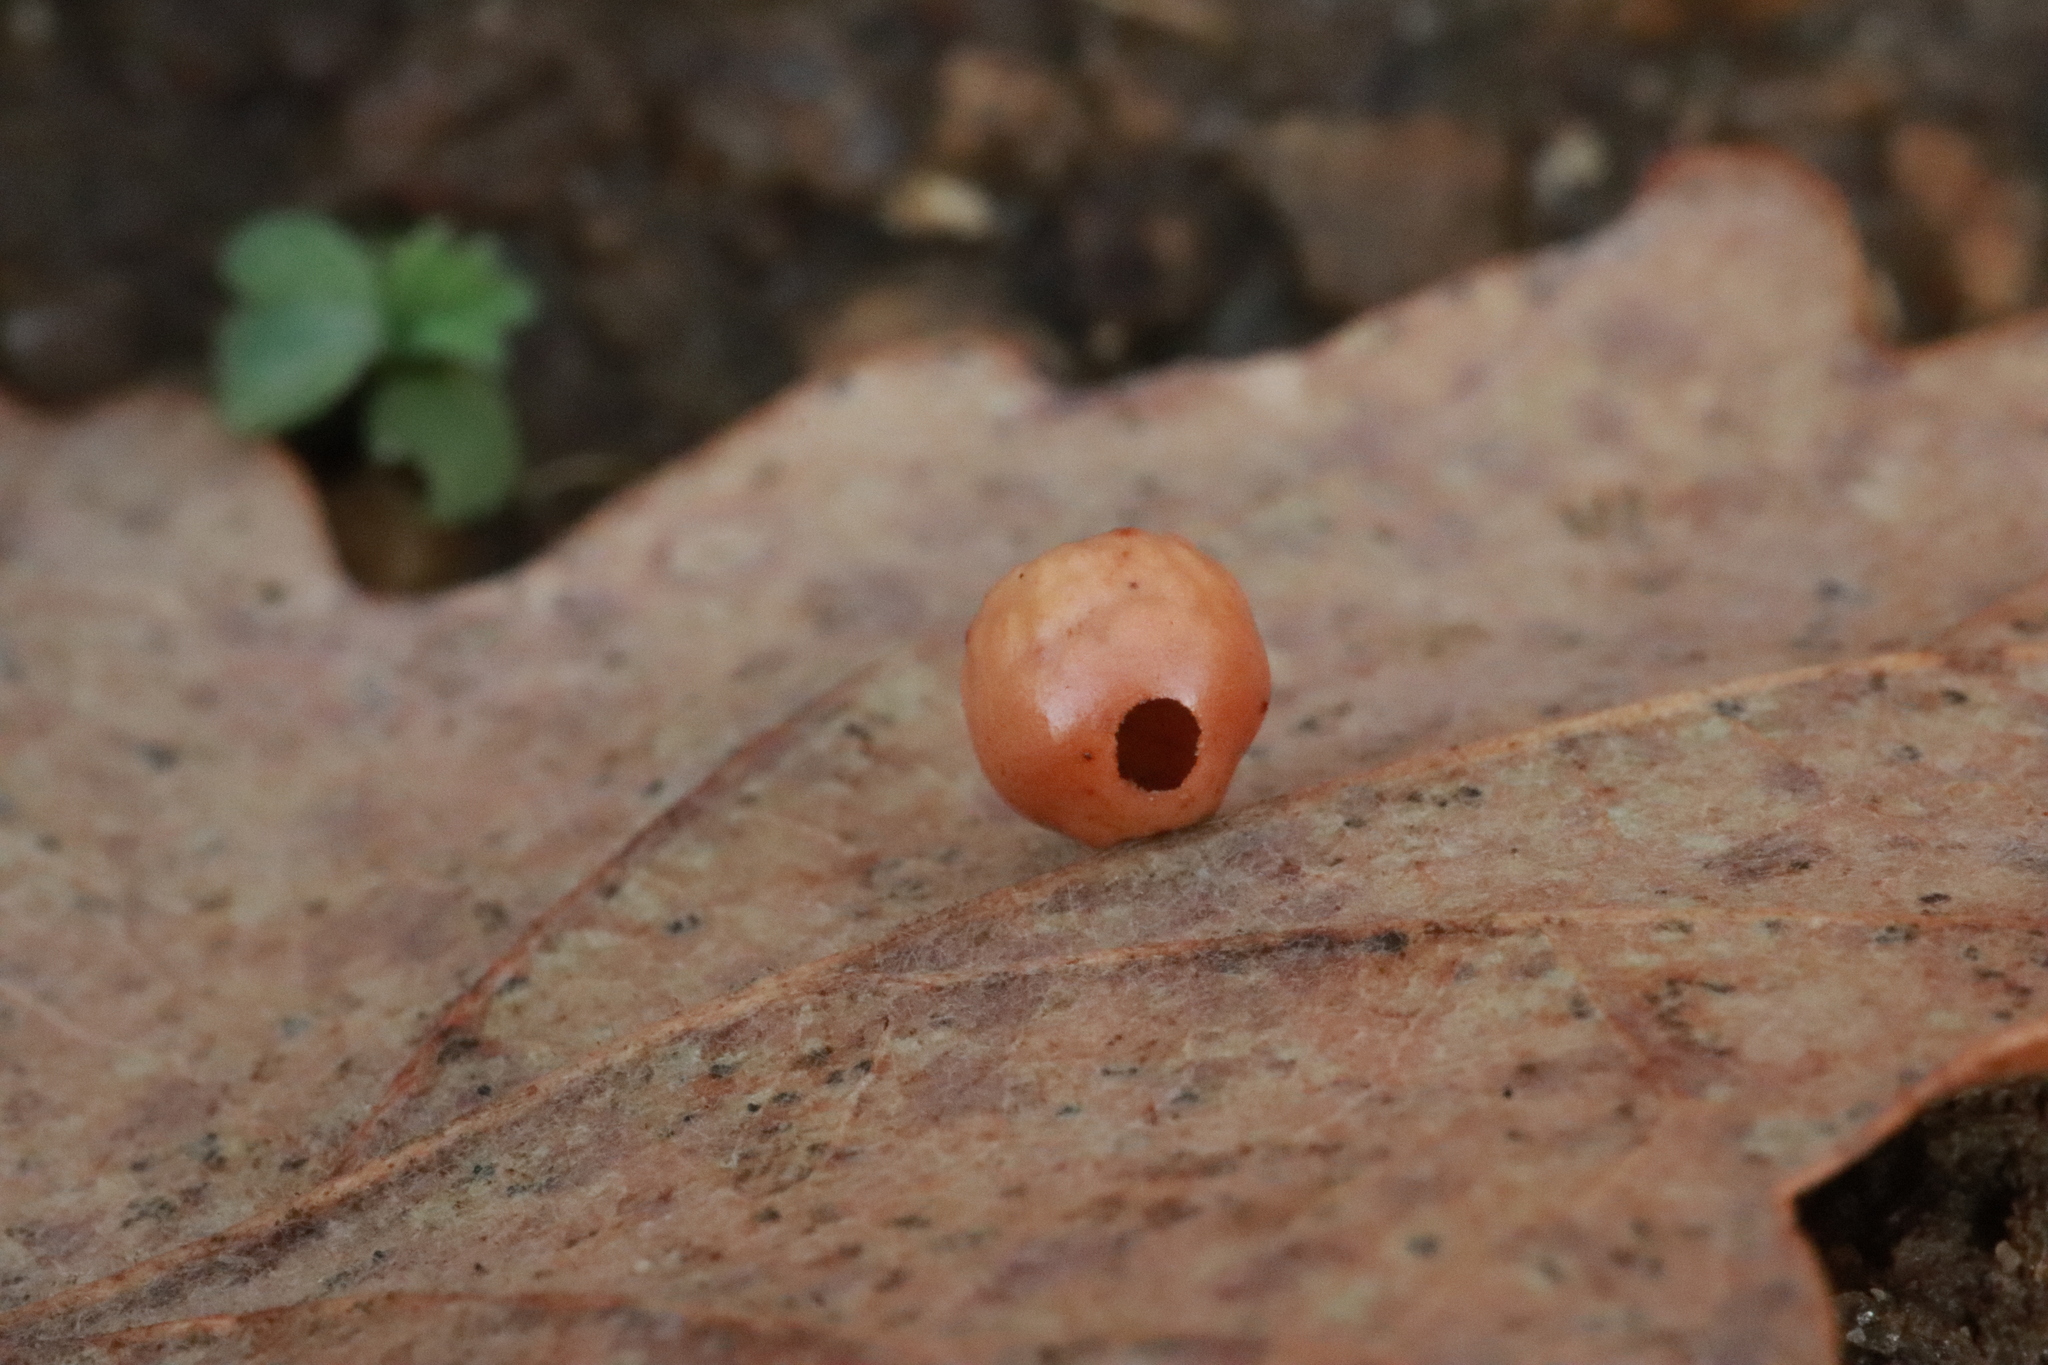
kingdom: Animalia
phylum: Arthropoda
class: Insecta
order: Hymenoptera
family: Cynipidae
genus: Cynips
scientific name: Cynips disticha
